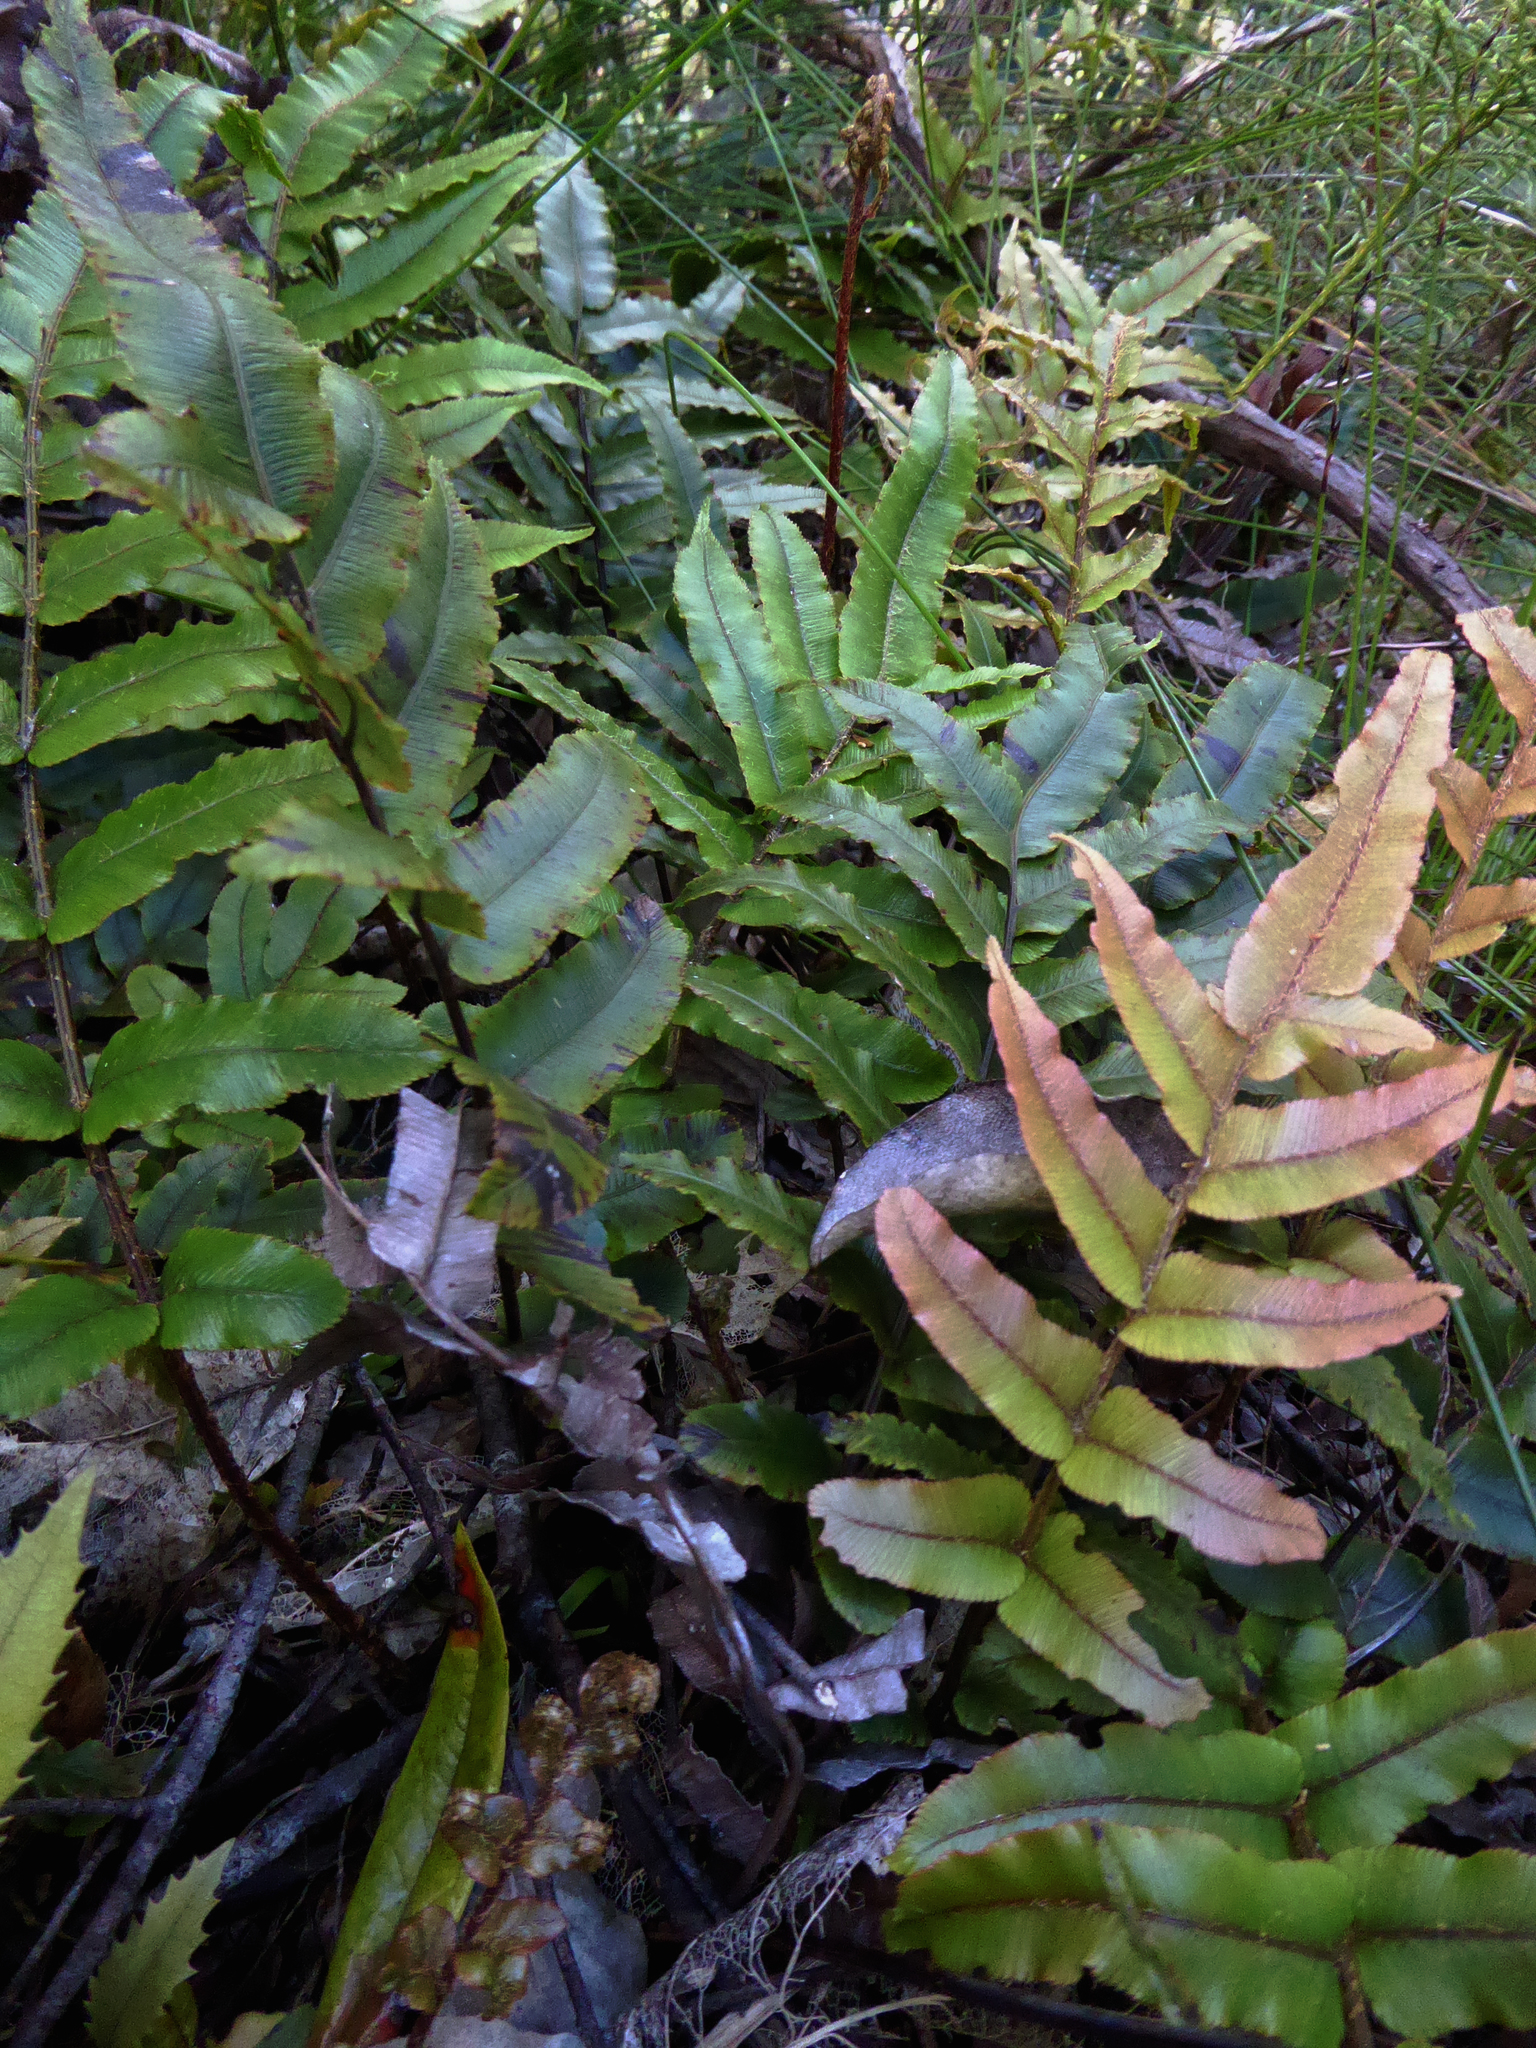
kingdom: Plantae
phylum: Tracheophyta
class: Polypodiopsida
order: Polypodiales
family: Blechnaceae
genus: Parablechnum
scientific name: Parablechnum procerum
